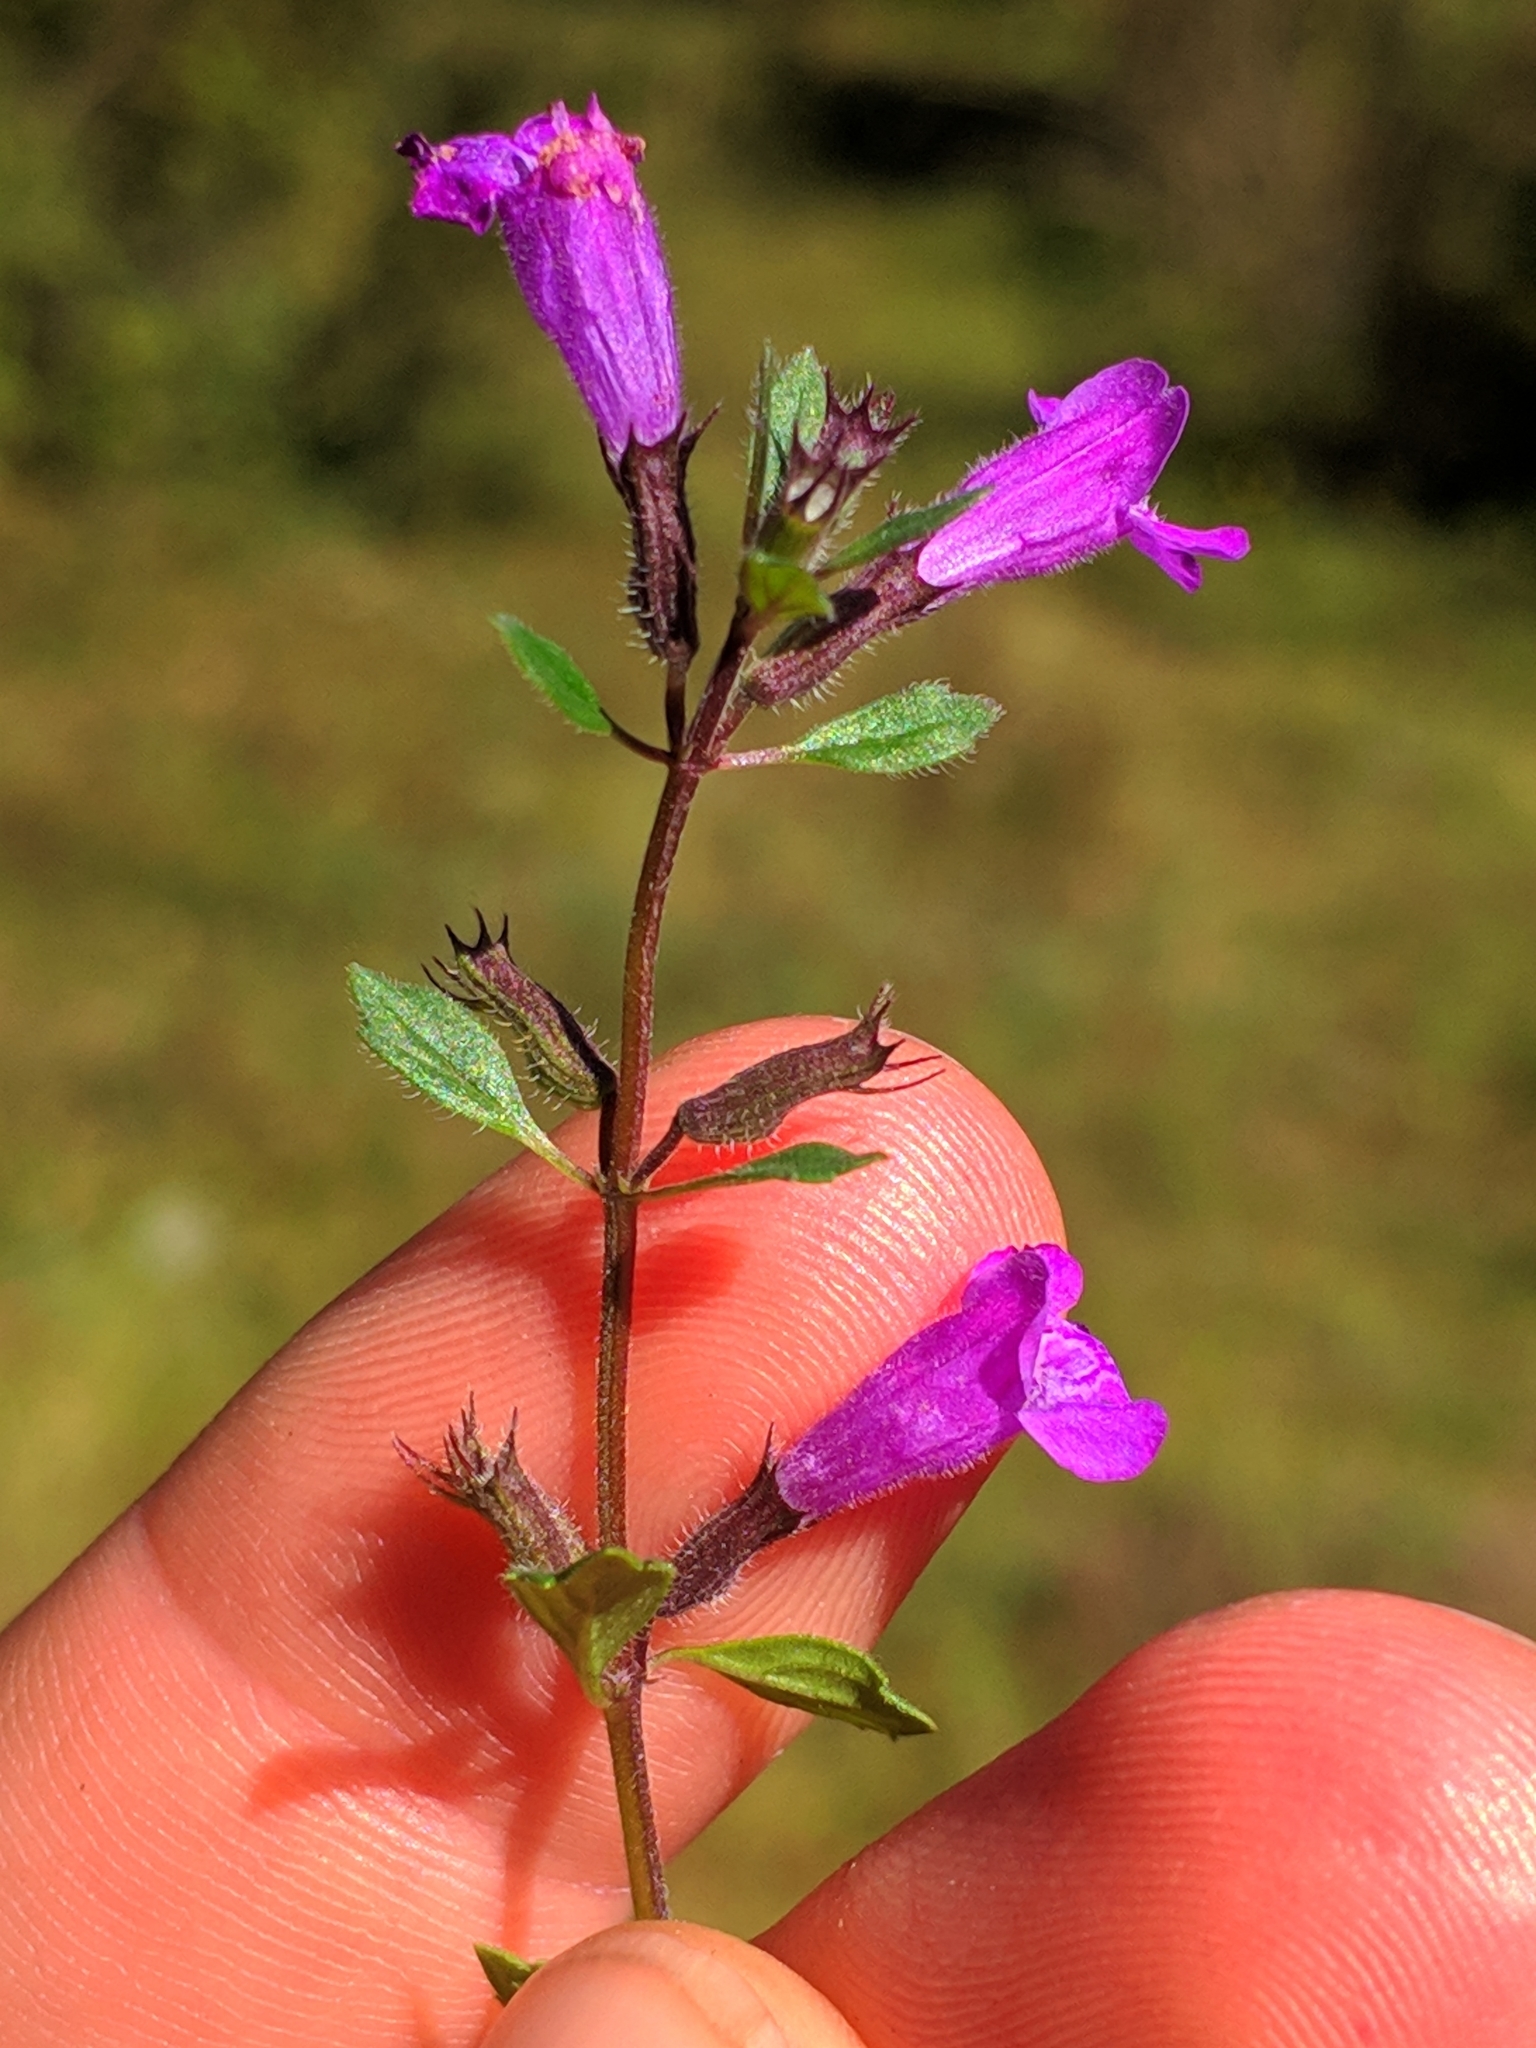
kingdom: Plantae
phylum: Tracheophyta
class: Magnoliopsida
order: Lamiales
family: Lamiaceae
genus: Clinopodium
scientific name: Clinopodium alpinum
